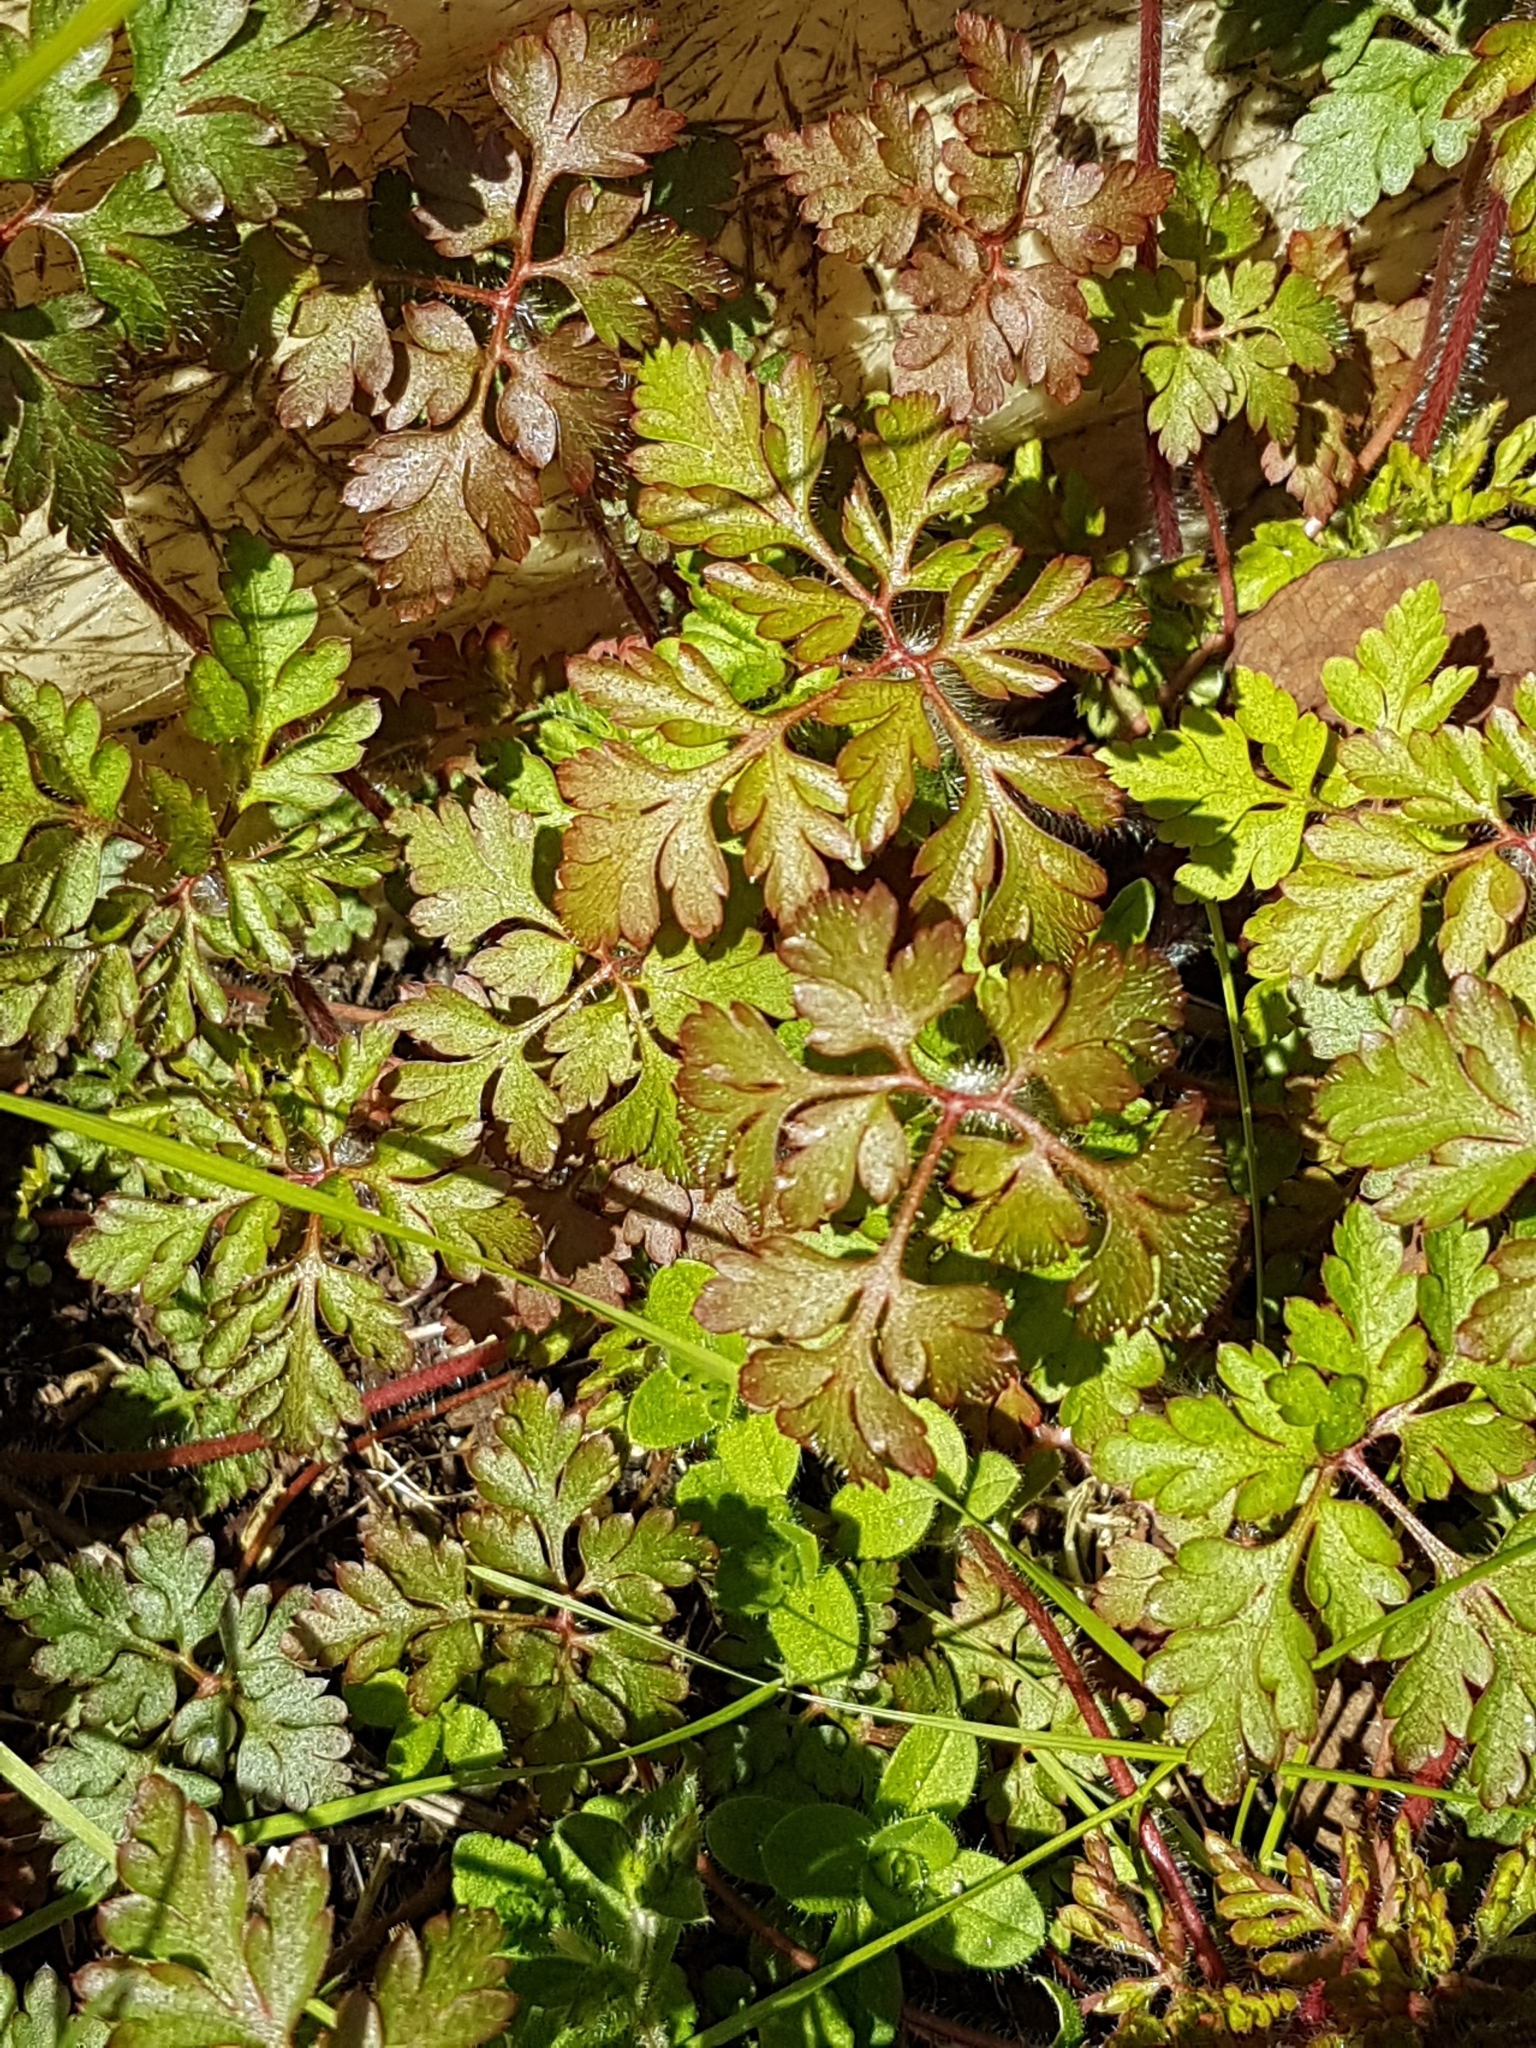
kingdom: Plantae
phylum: Tracheophyta
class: Magnoliopsida
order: Geraniales
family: Geraniaceae
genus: Geranium
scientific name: Geranium robertianum
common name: Herb-robert
